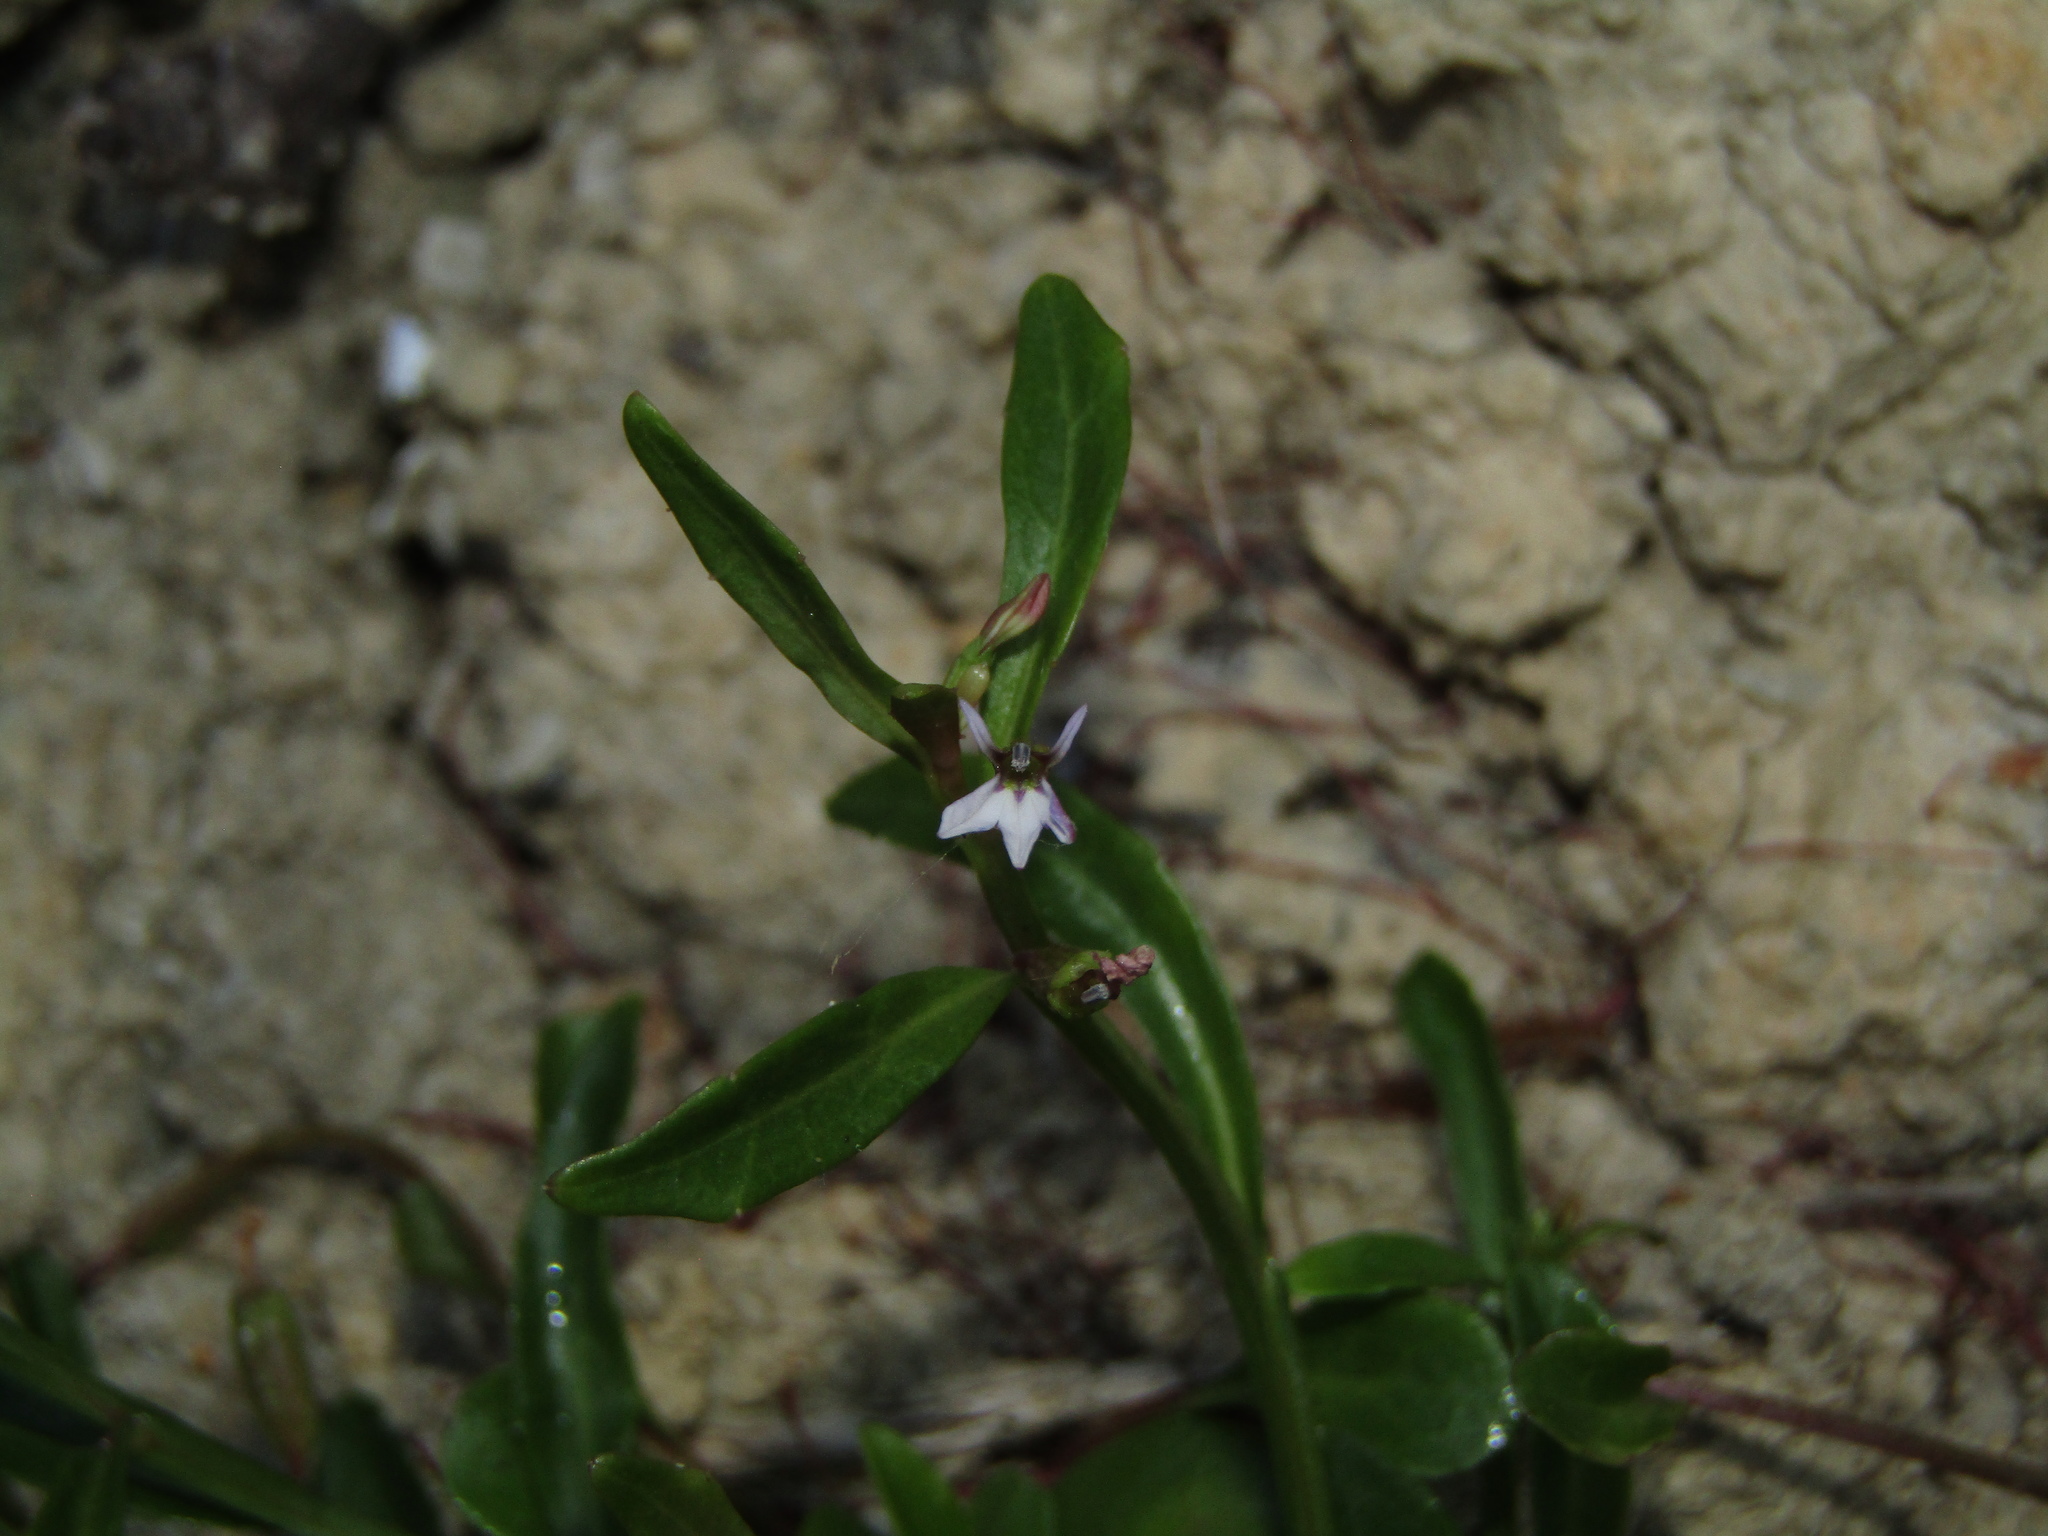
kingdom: Plantae
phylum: Tracheophyta
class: Magnoliopsida
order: Asterales
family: Campanulaceae
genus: Lobelia
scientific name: Lobelia anceps
